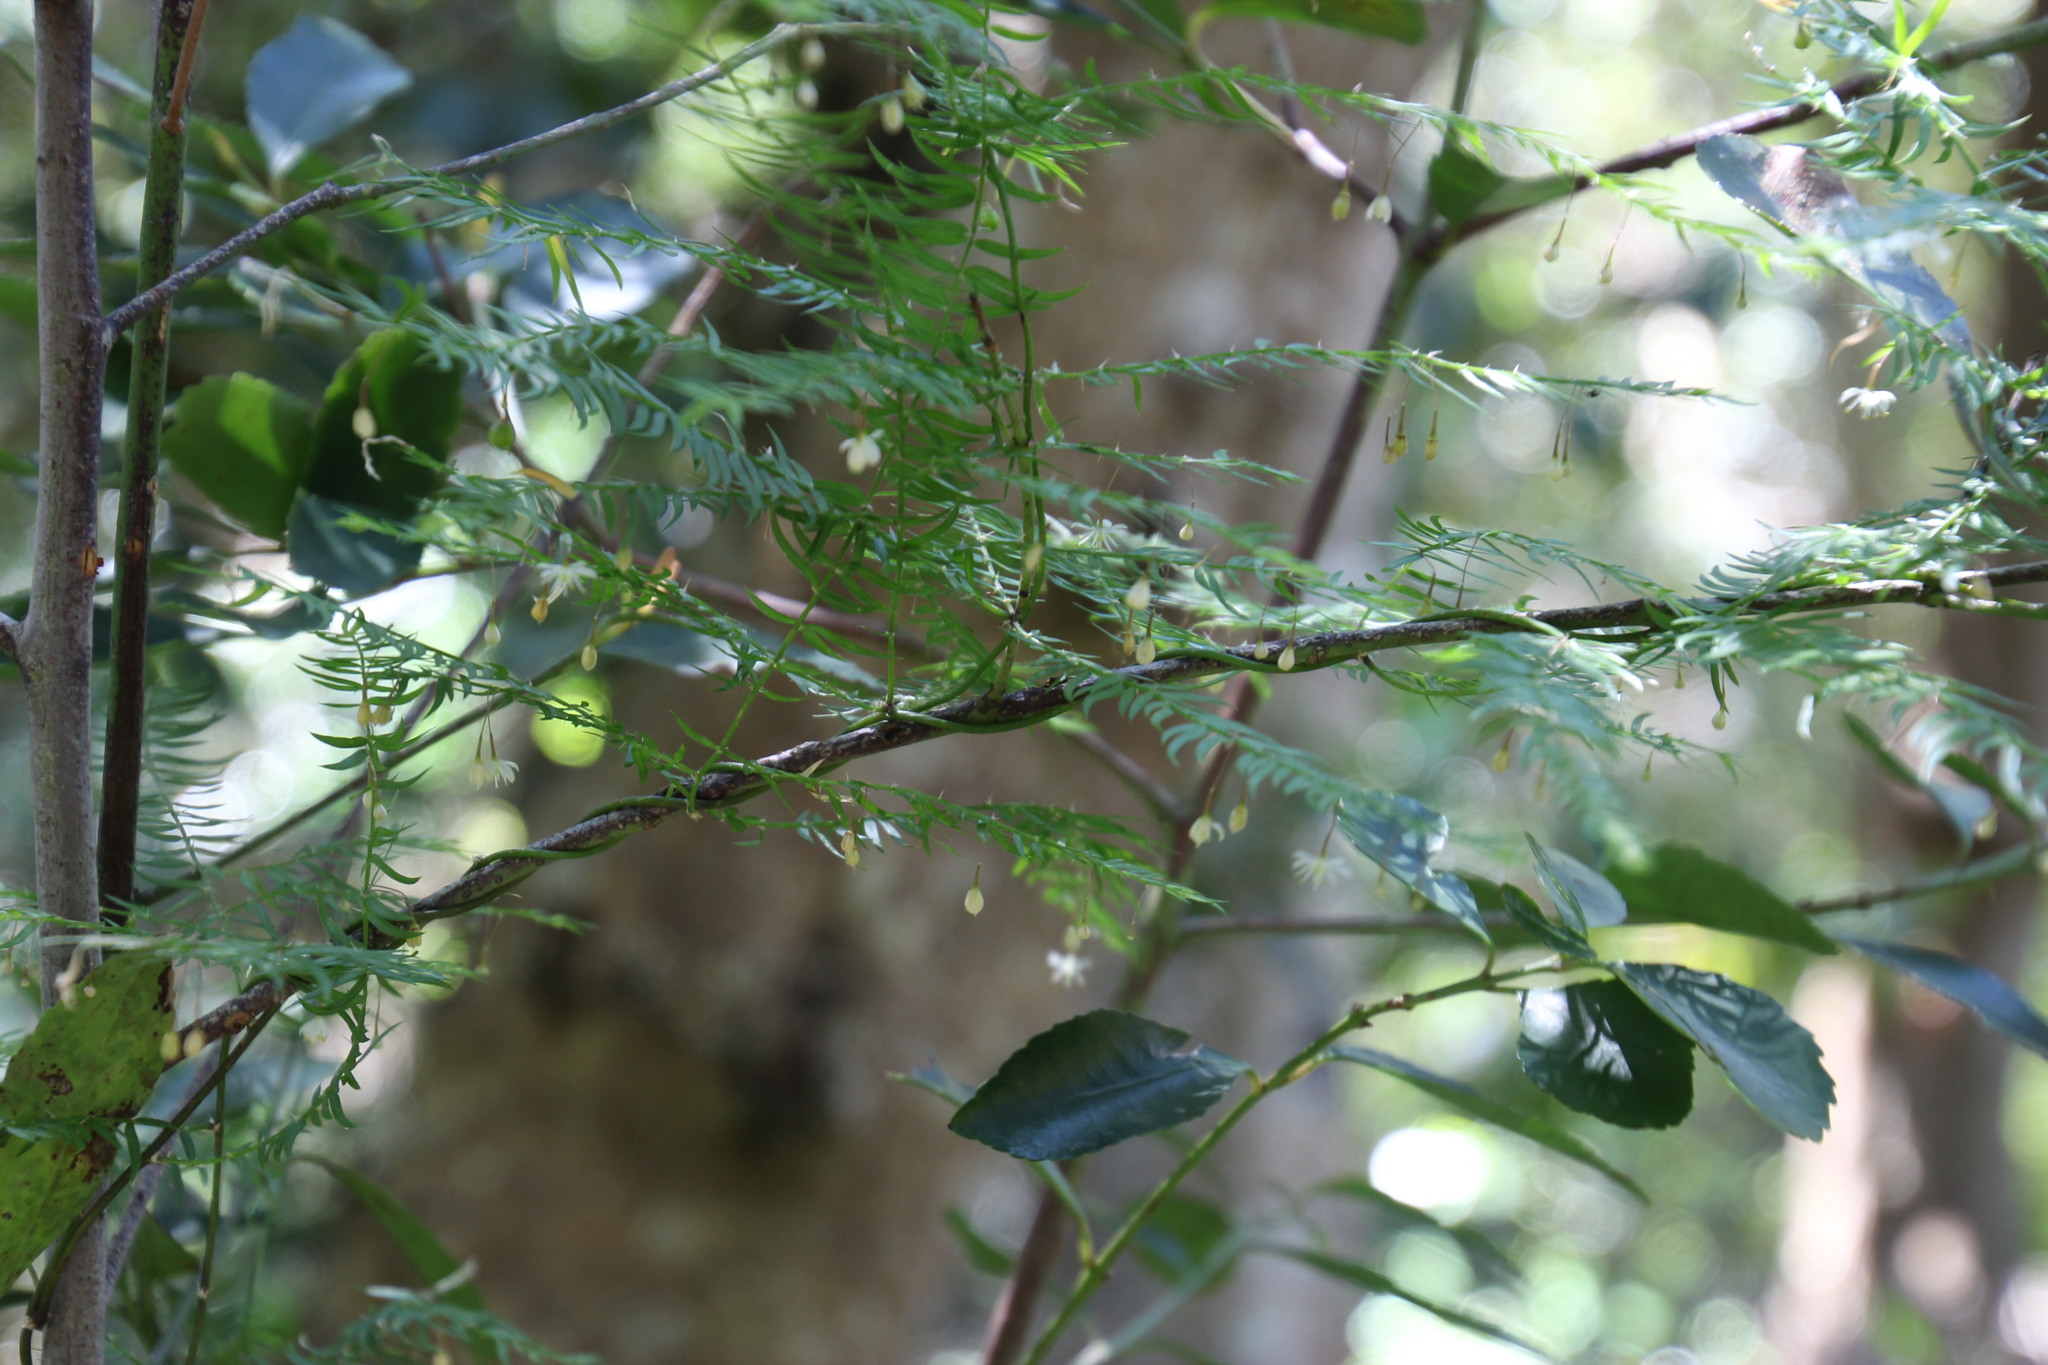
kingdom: Plantae
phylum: Tracheophyta
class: Liliopsida
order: Asparagales
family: Asparagaceae
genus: Asparagus
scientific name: Asparagus scandens
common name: Asparagus-fern
